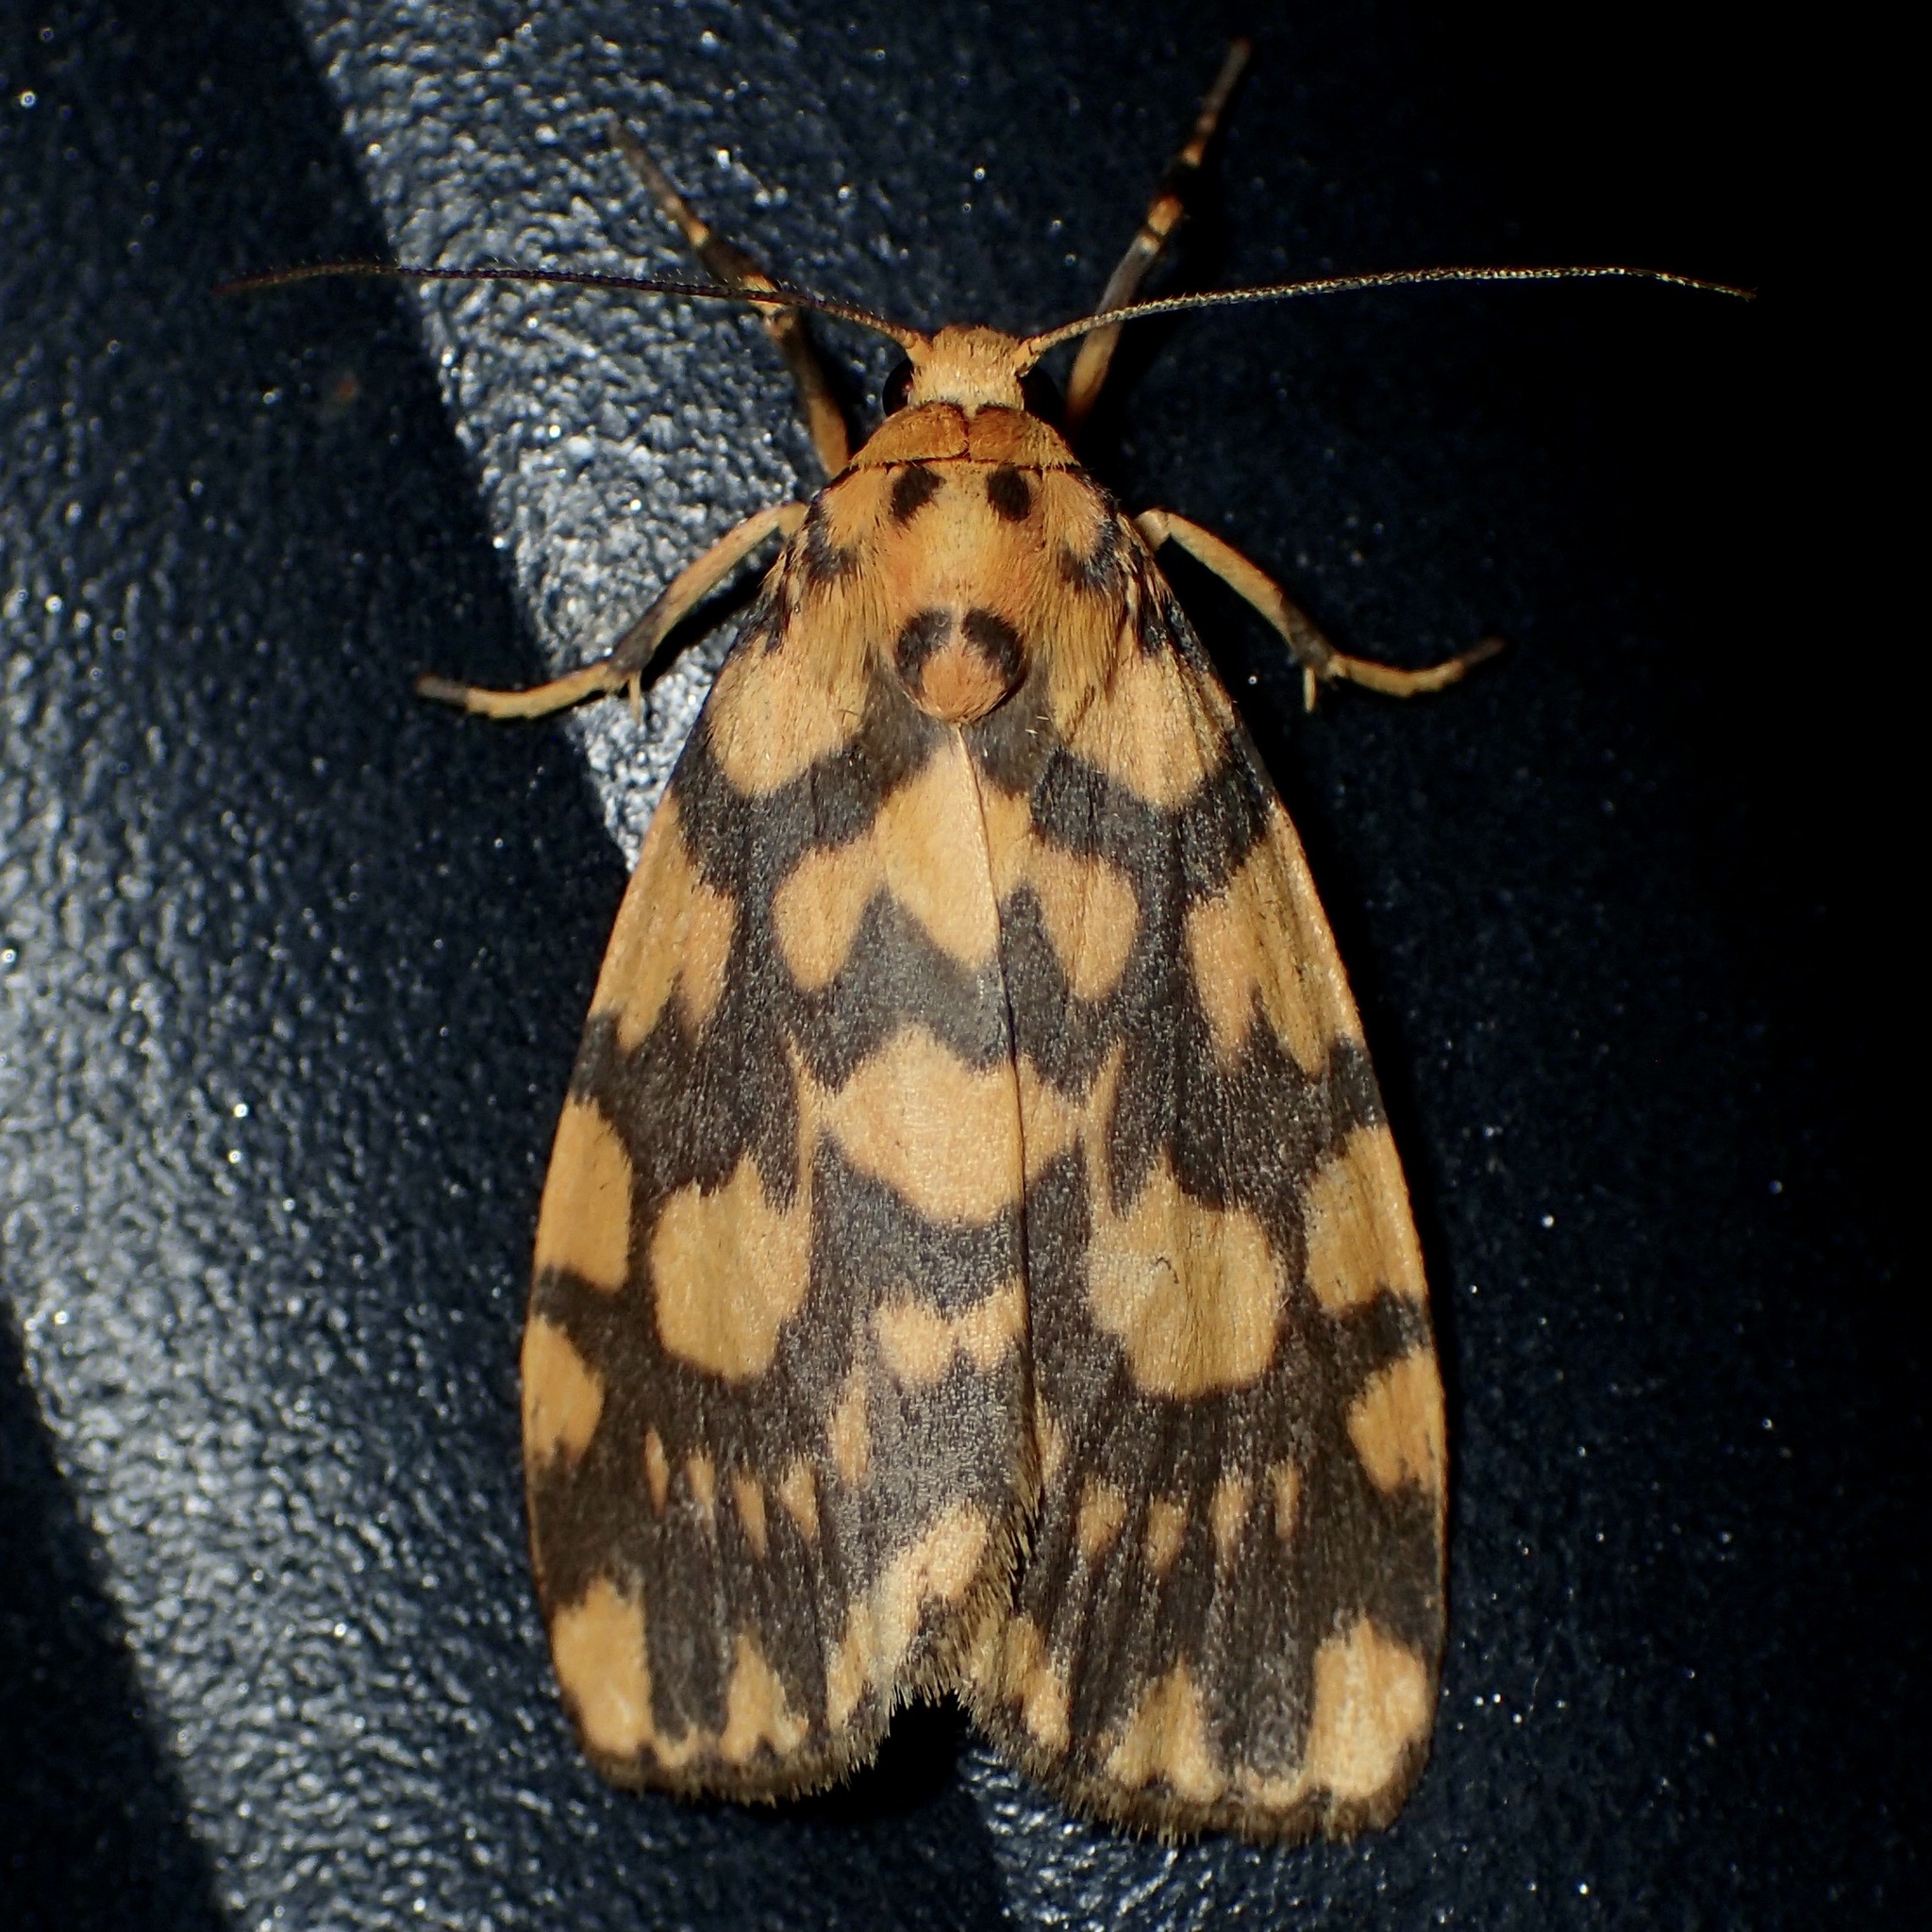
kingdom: Animalia
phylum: Arthropoda
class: Insecta
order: Lepidoptera
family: Erebidae
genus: Cyme
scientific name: Cyme quadrilineata
